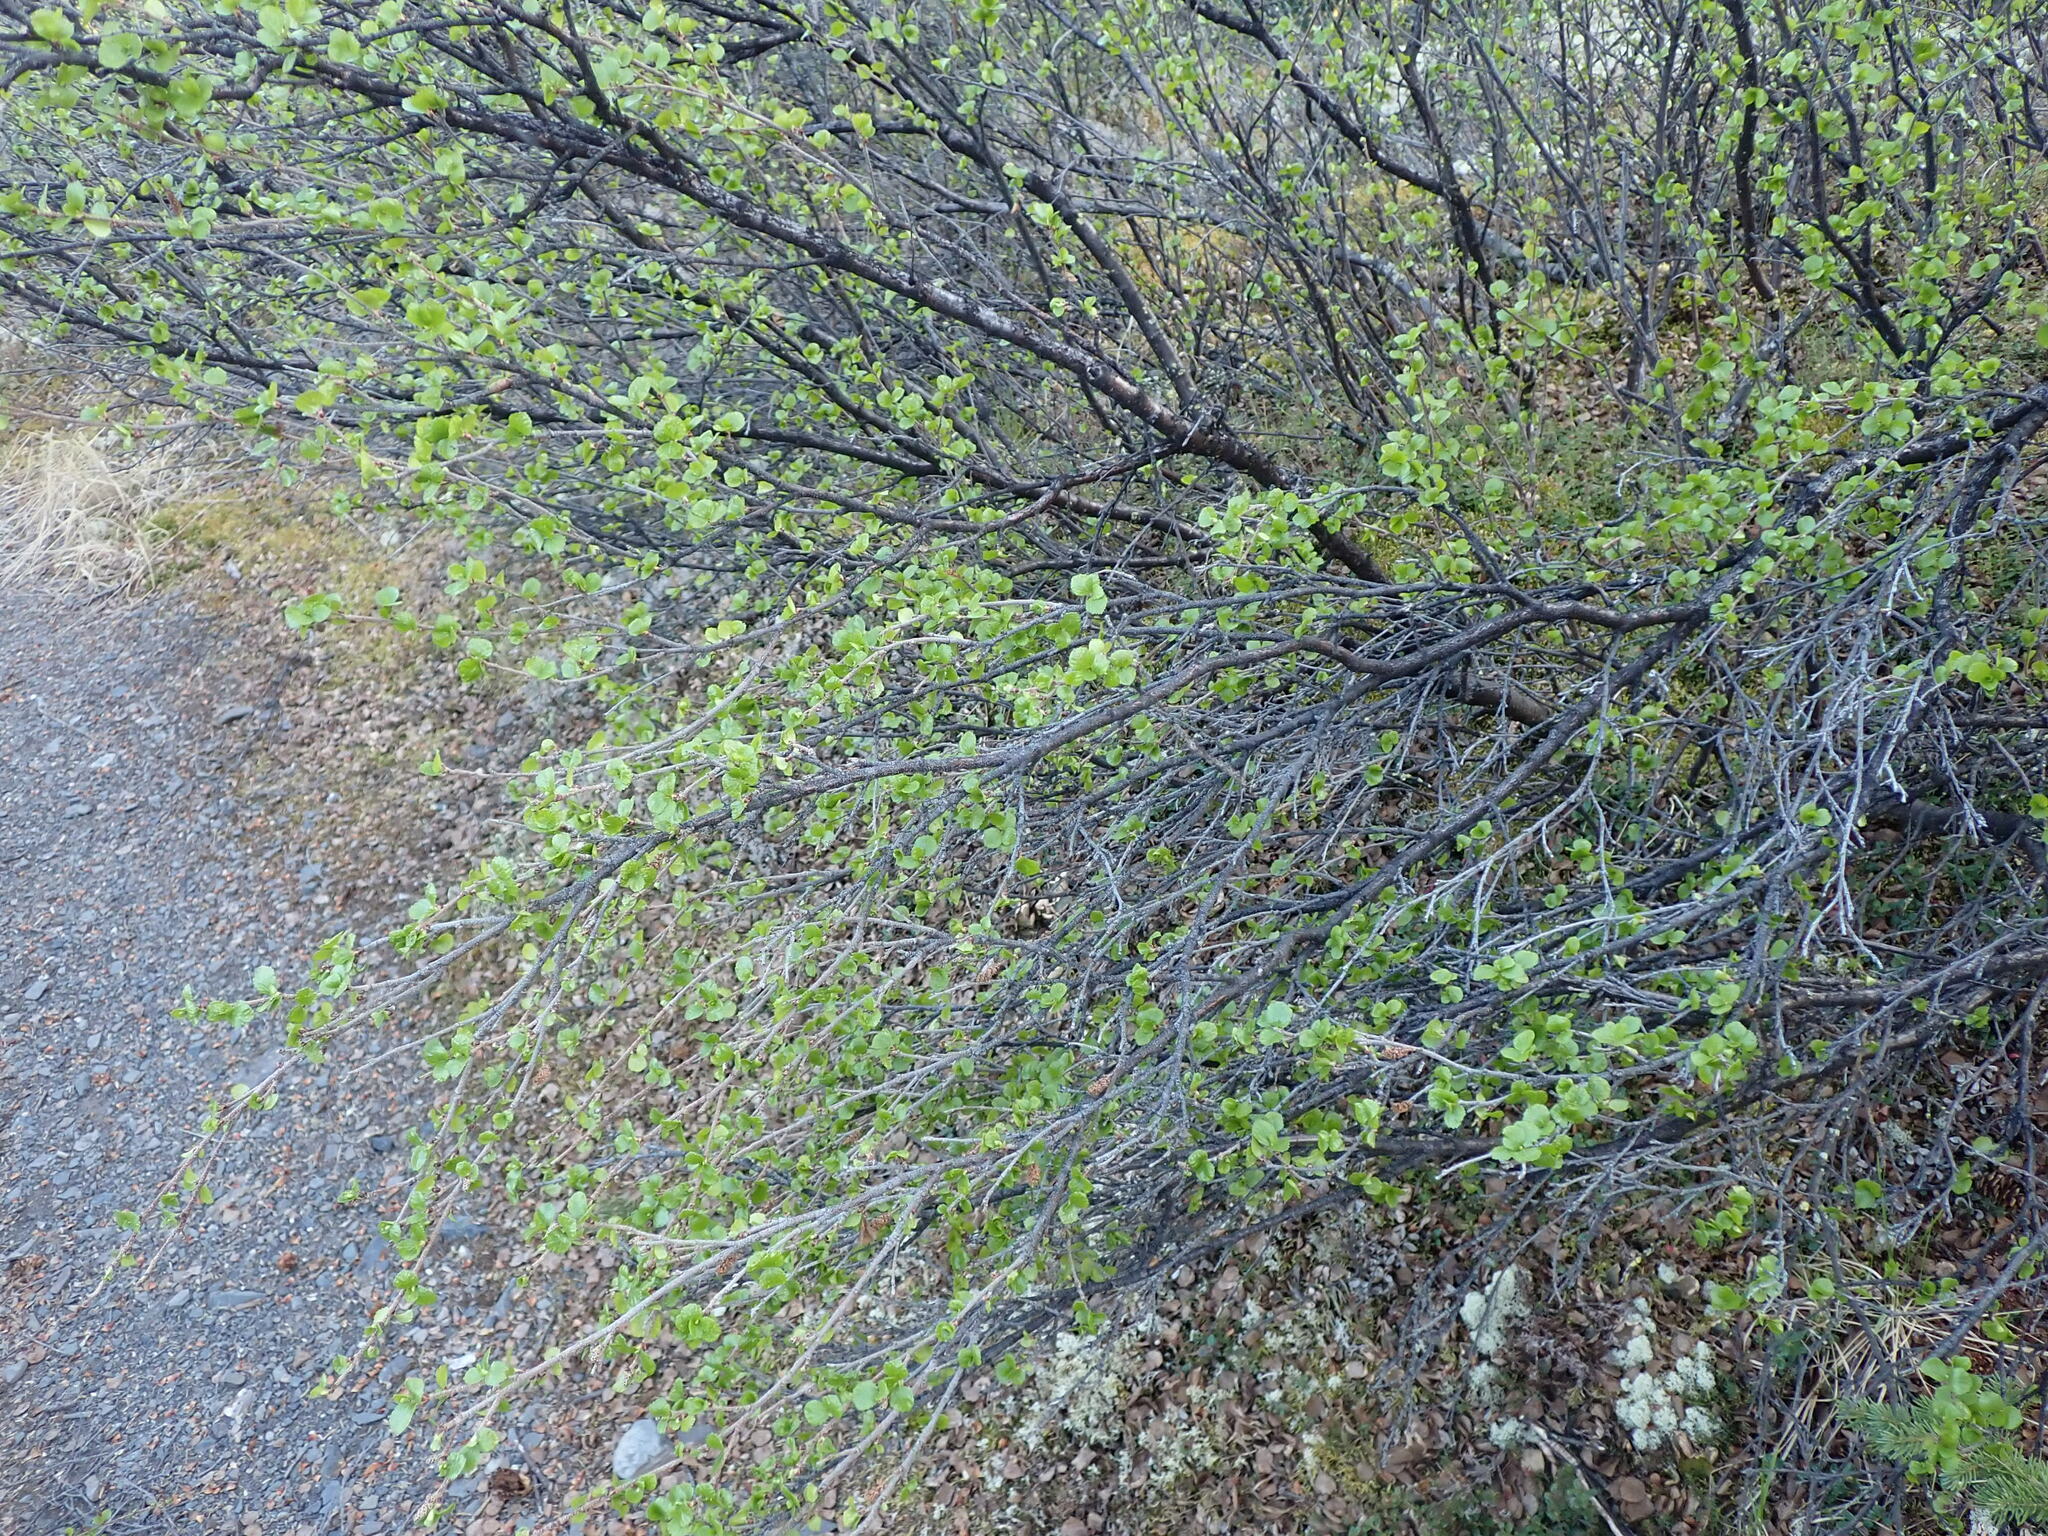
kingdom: Plantae
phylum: Tracheophyta
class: Magnoliopsida
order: Fagales
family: Betulaceae
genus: Betula
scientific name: Betula glandulosa
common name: Dwarf birch
